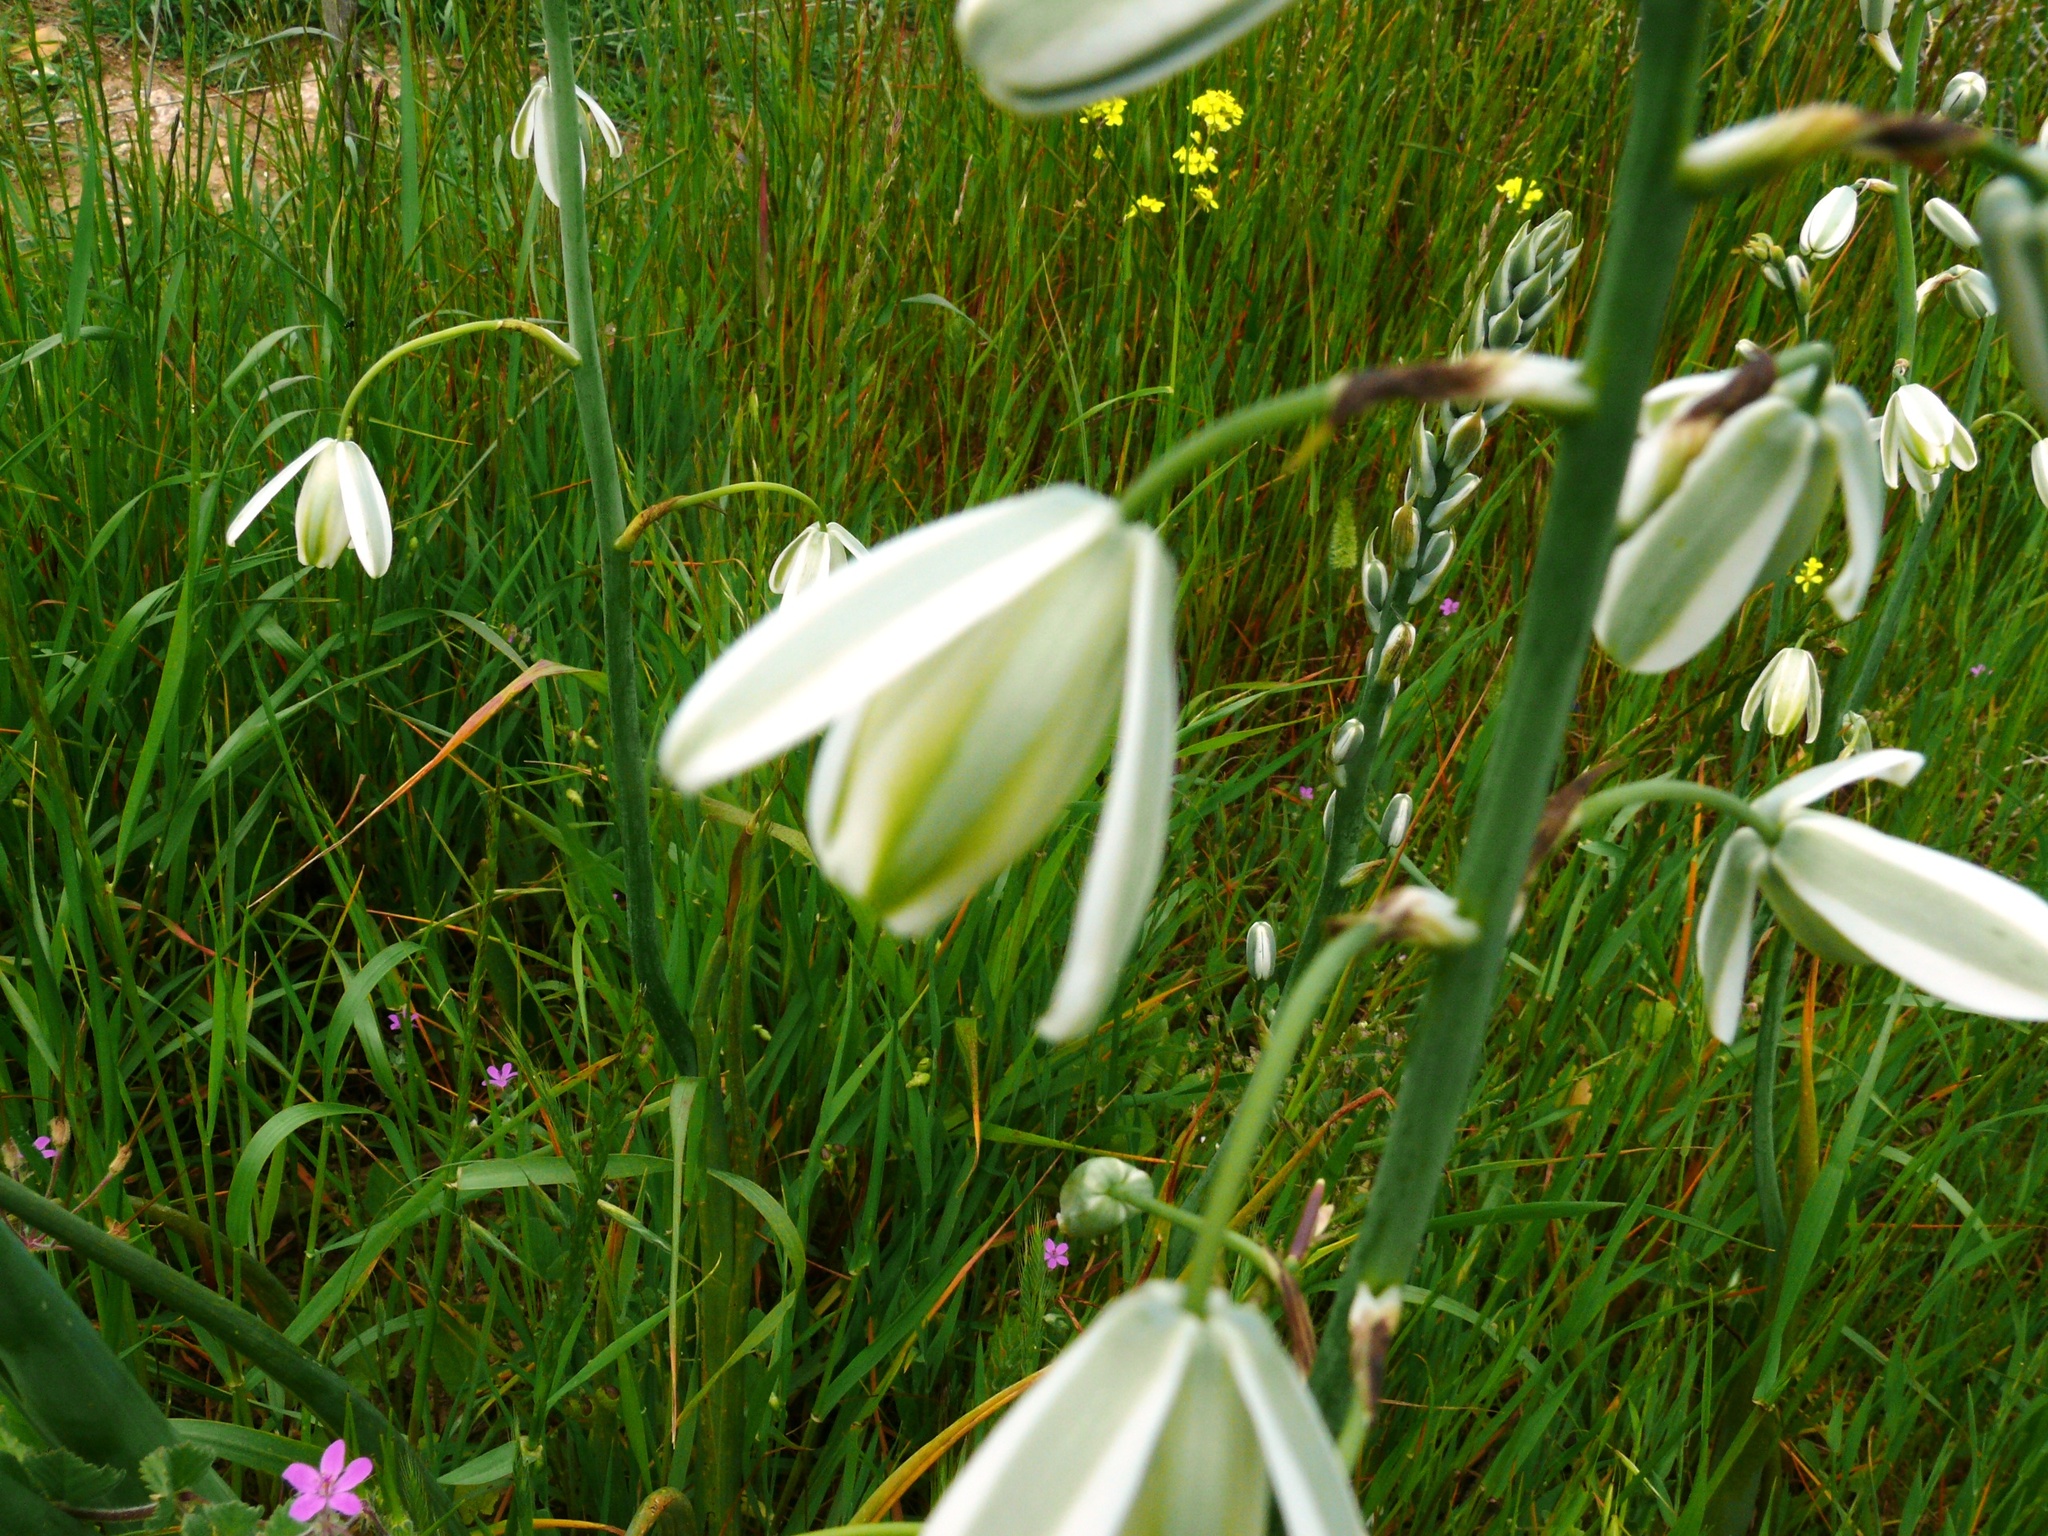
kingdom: Plantae
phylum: Tracheophyta
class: Liliopsida
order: Asparagales
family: Asparagaceae
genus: Albuca
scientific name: Albuca canadensis
